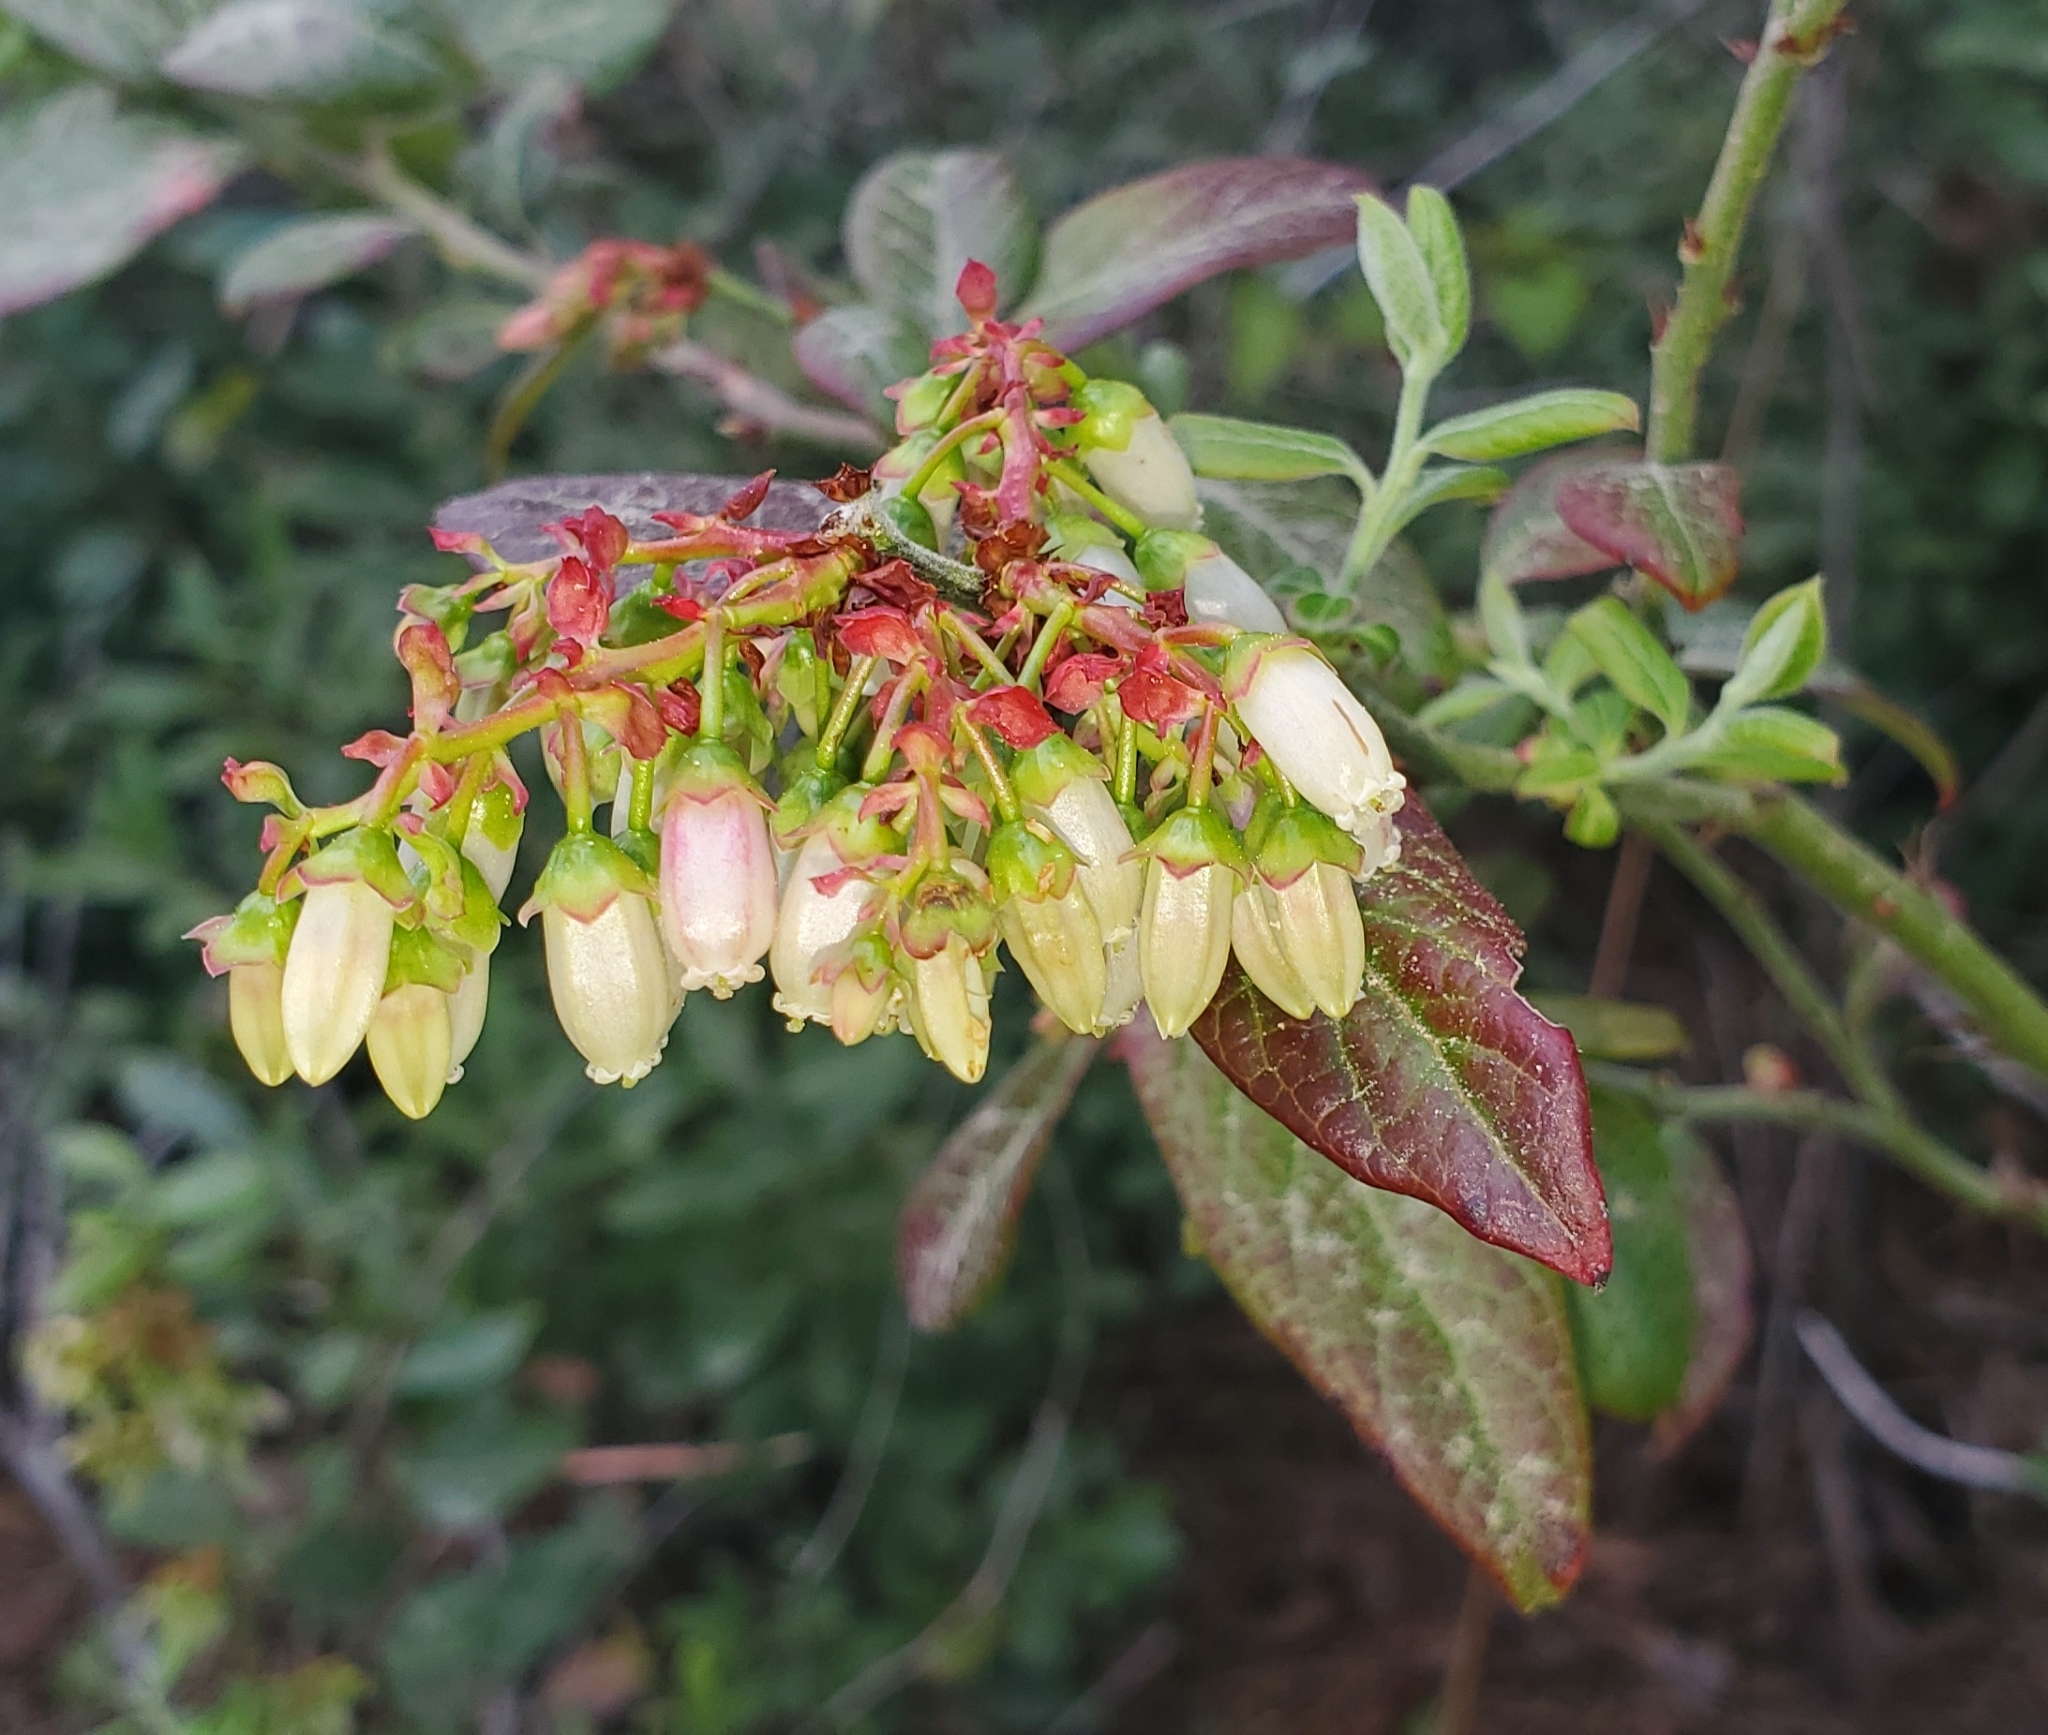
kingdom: Plantae
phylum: Tracheophyta
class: Magnoliopsida
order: Ericales
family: Ericaceae
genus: Vaccinium
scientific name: Vaccinium corymbosum
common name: Blueberry
